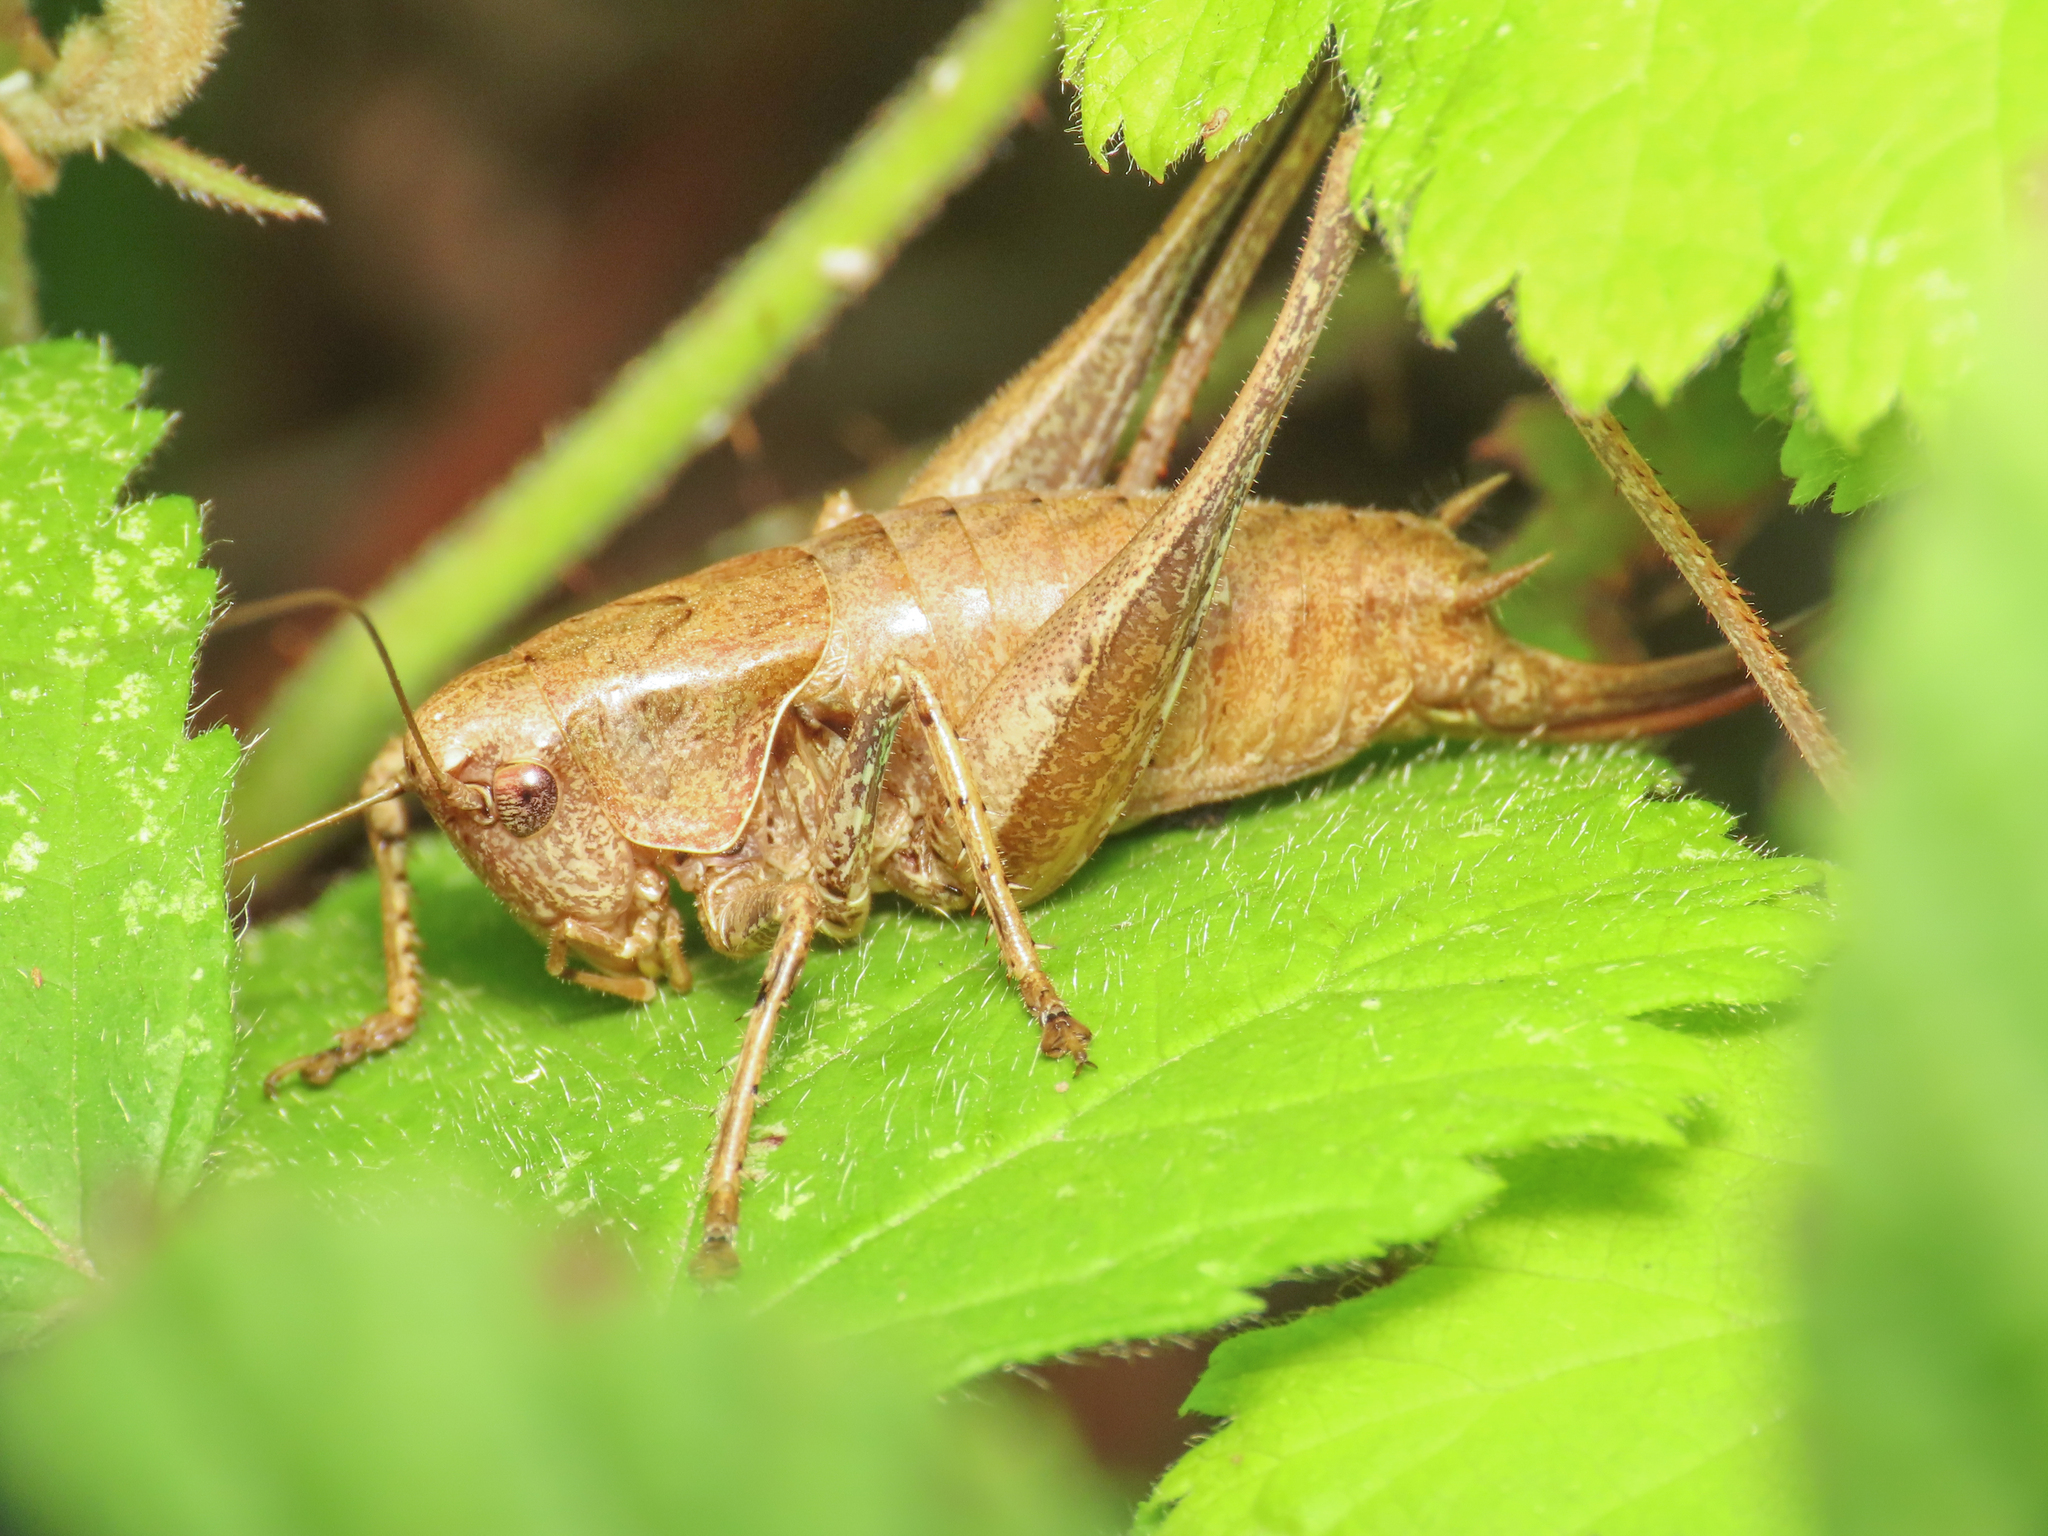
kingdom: Animalia
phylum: Arthropoda
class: Insecta
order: Orthoptera
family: Tettigoniidae
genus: Pholidoptera
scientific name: Pholidoptera griseoaptera
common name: Dark bush-cricket
